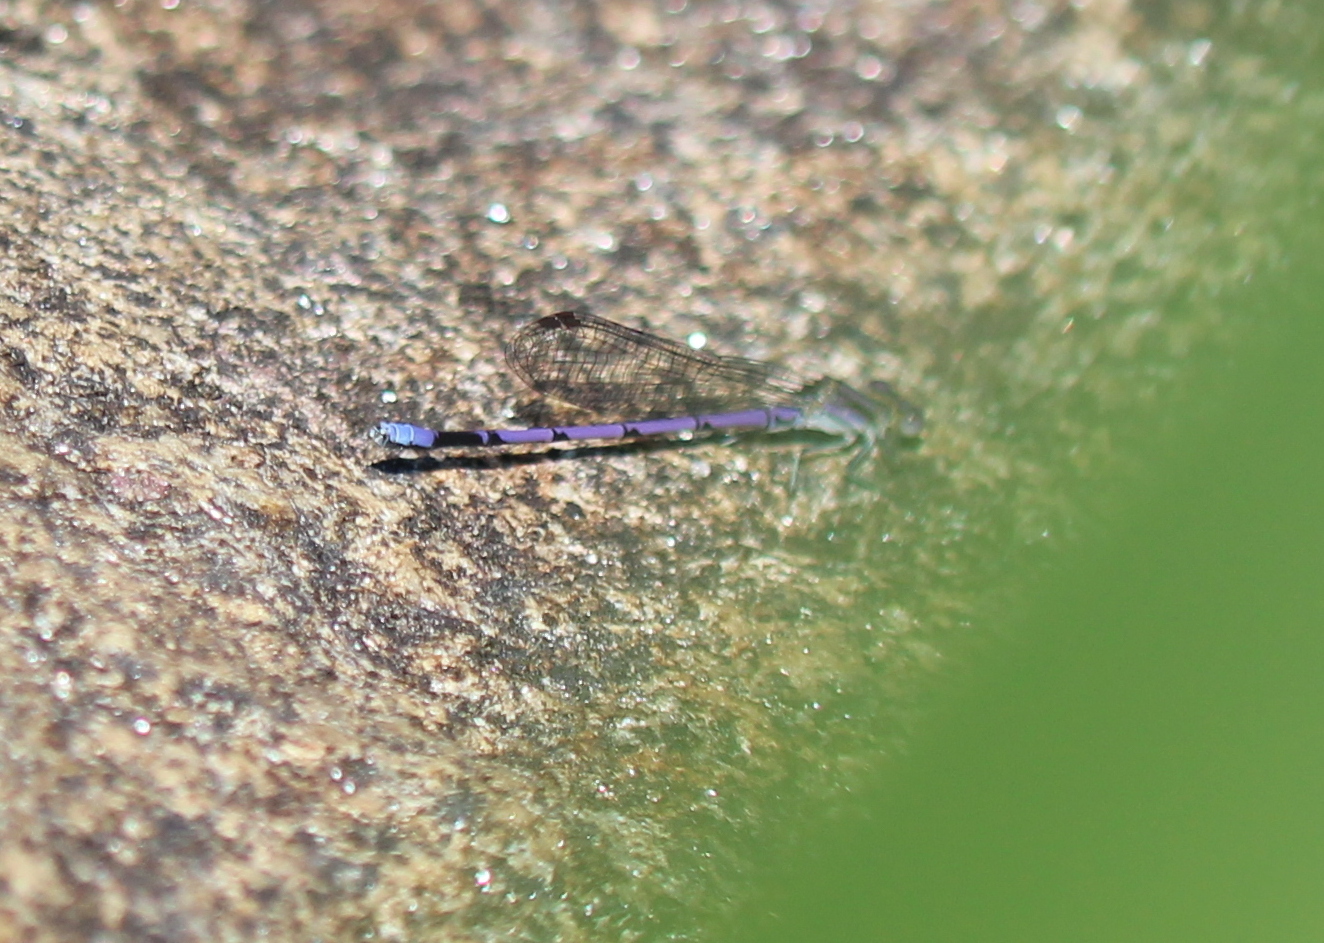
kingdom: Animalia
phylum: Arthropoda
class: Insecta
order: Odonata
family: Coenagrionidae
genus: Argia
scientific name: Argia fumipennis
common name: Variable dancer
